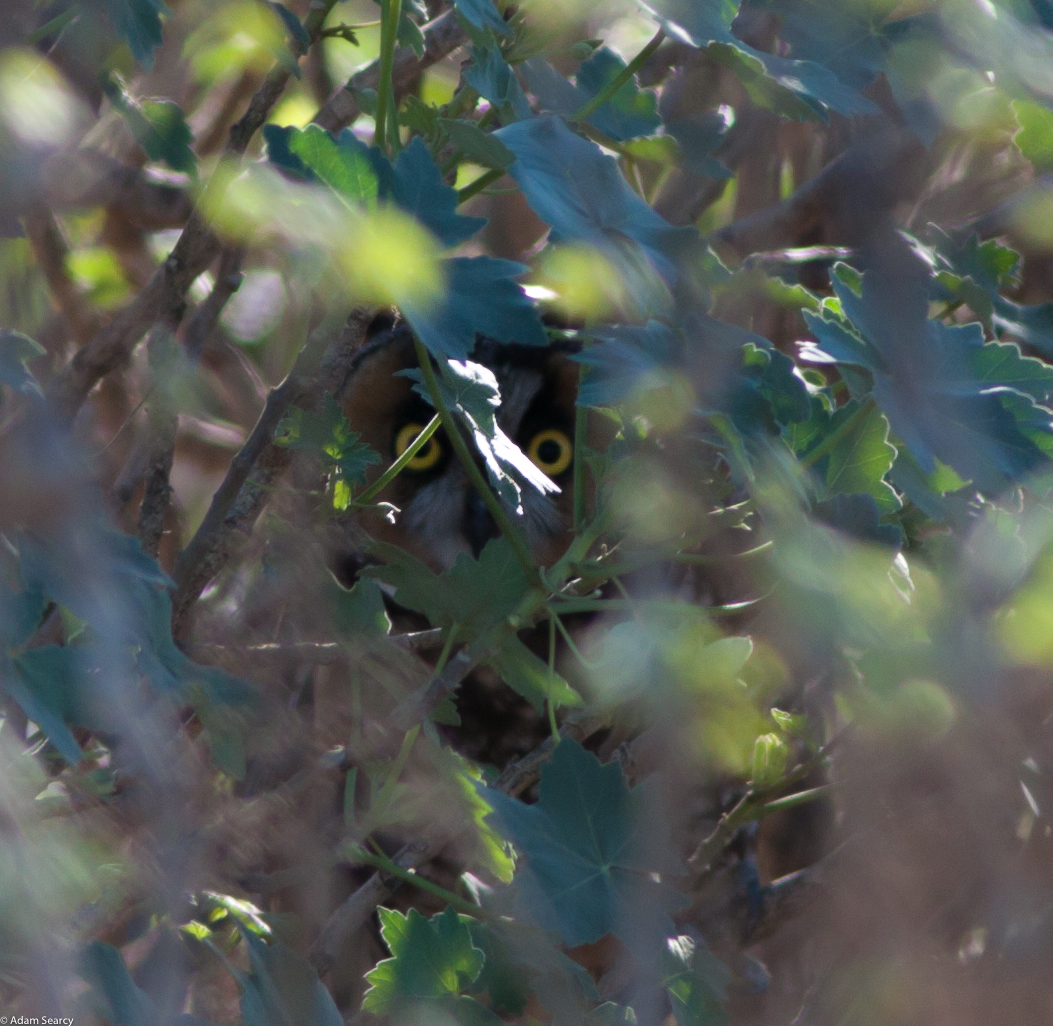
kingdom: Animalia
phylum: Chordata
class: Aves
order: Strigiformes
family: Strigidae
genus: Asio
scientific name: Asio otus
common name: Long-eared owl
